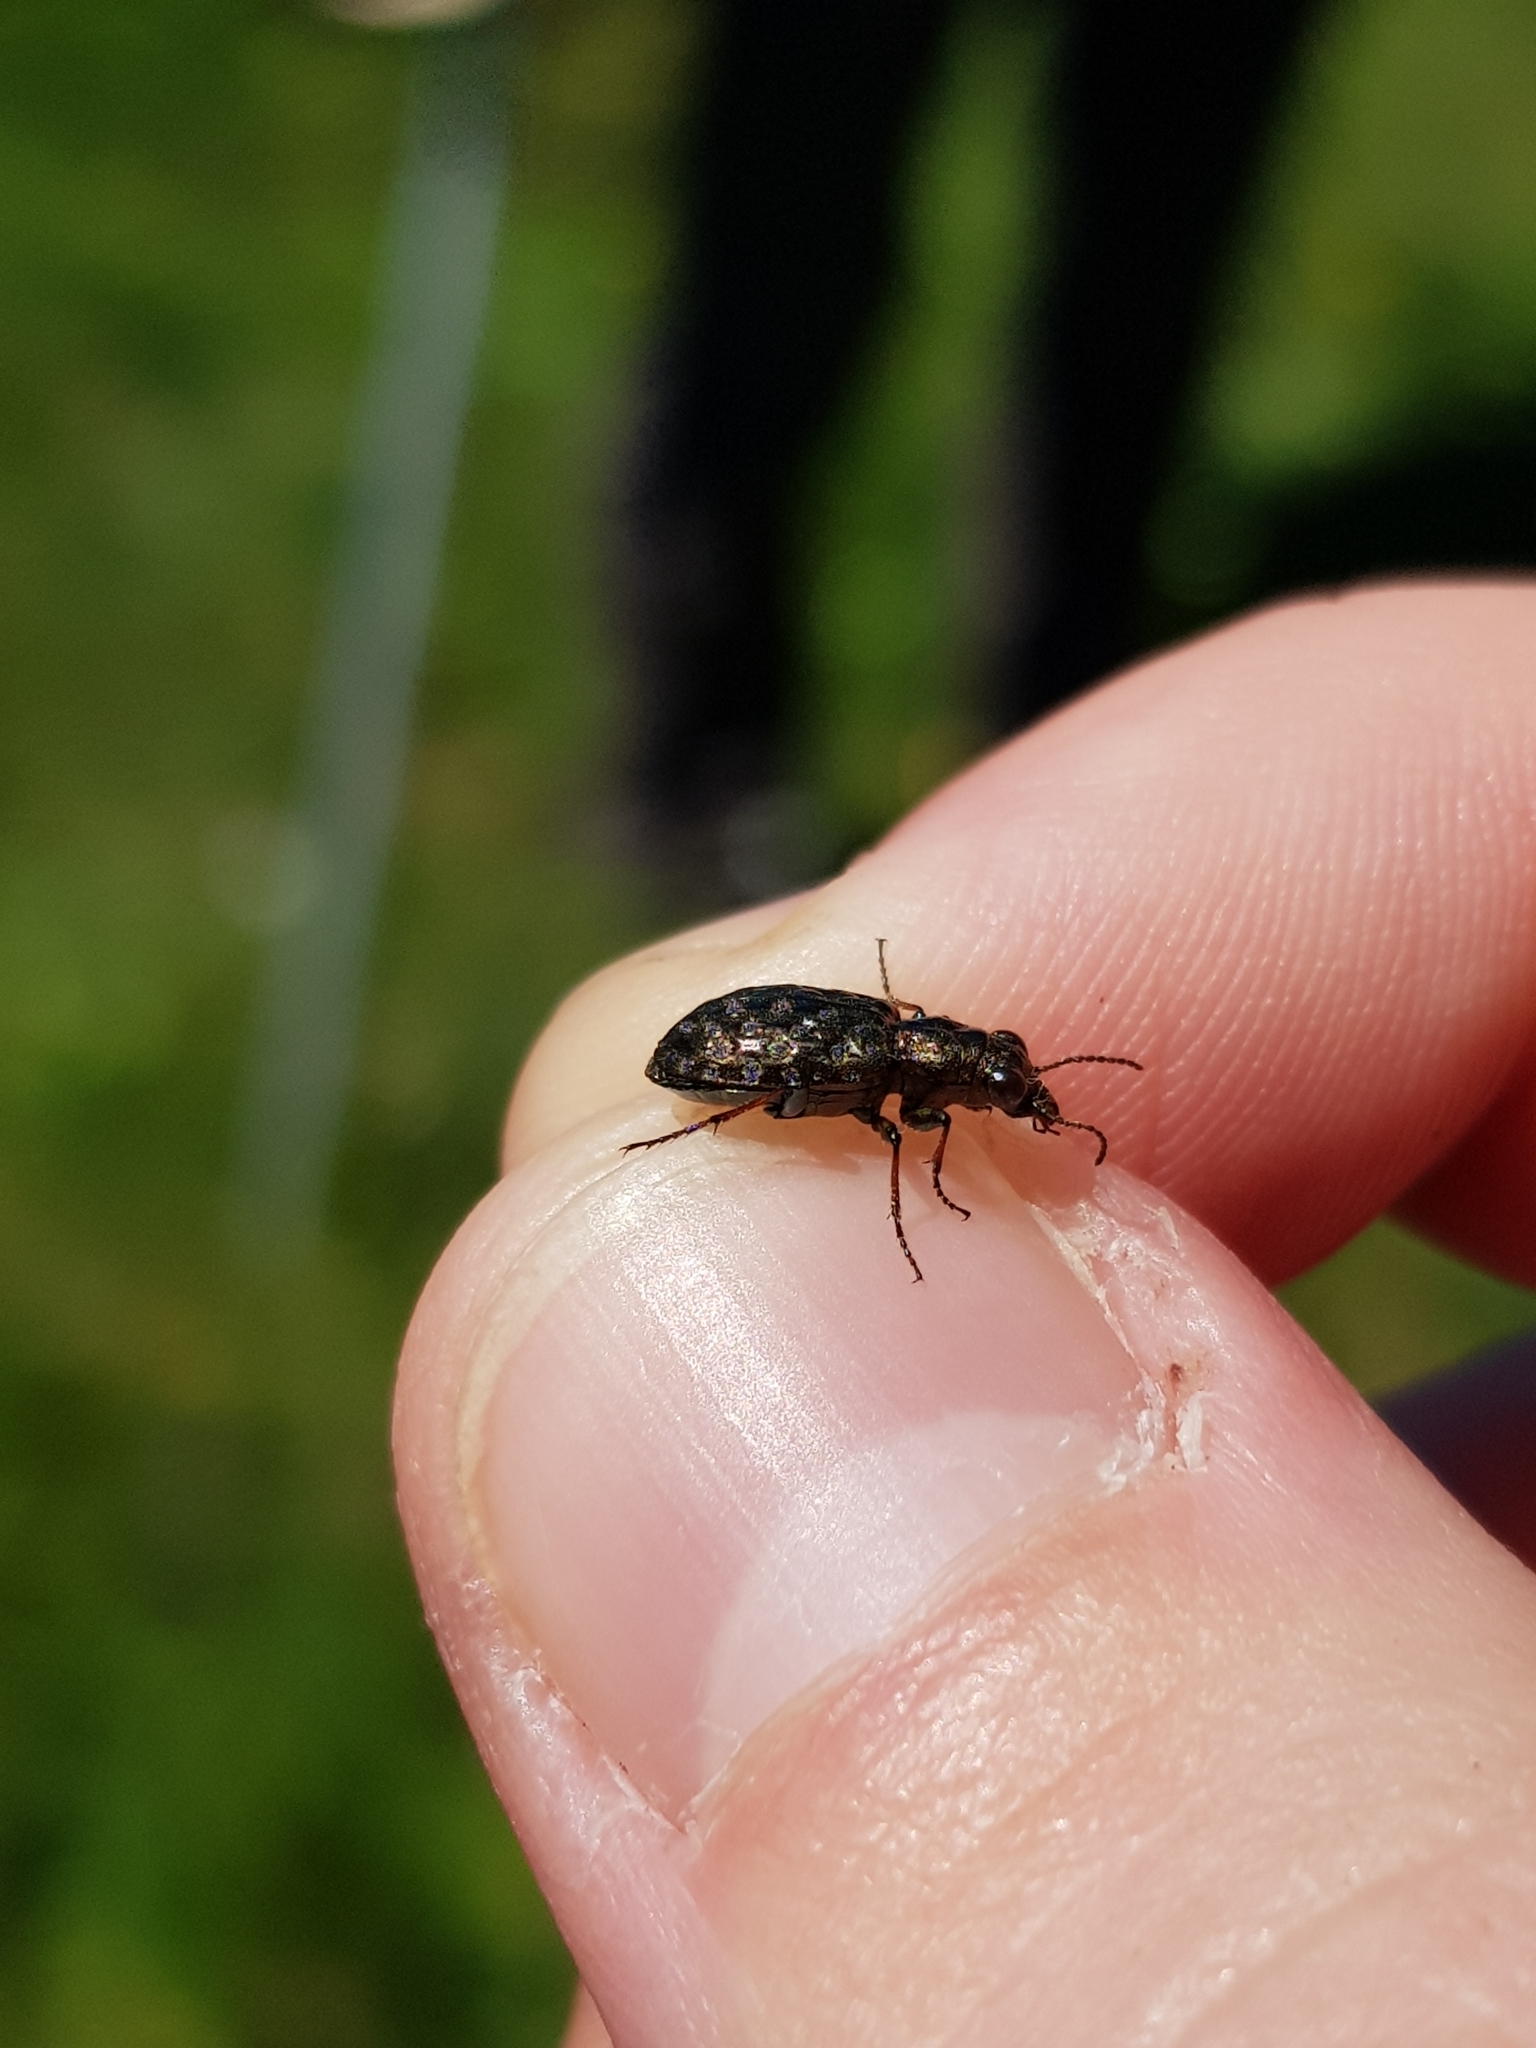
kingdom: Animalia
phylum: Arthropoda
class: Insecta
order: Coleoptera
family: Carabidae
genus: Elaphrus
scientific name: Elaphrus cupreus
